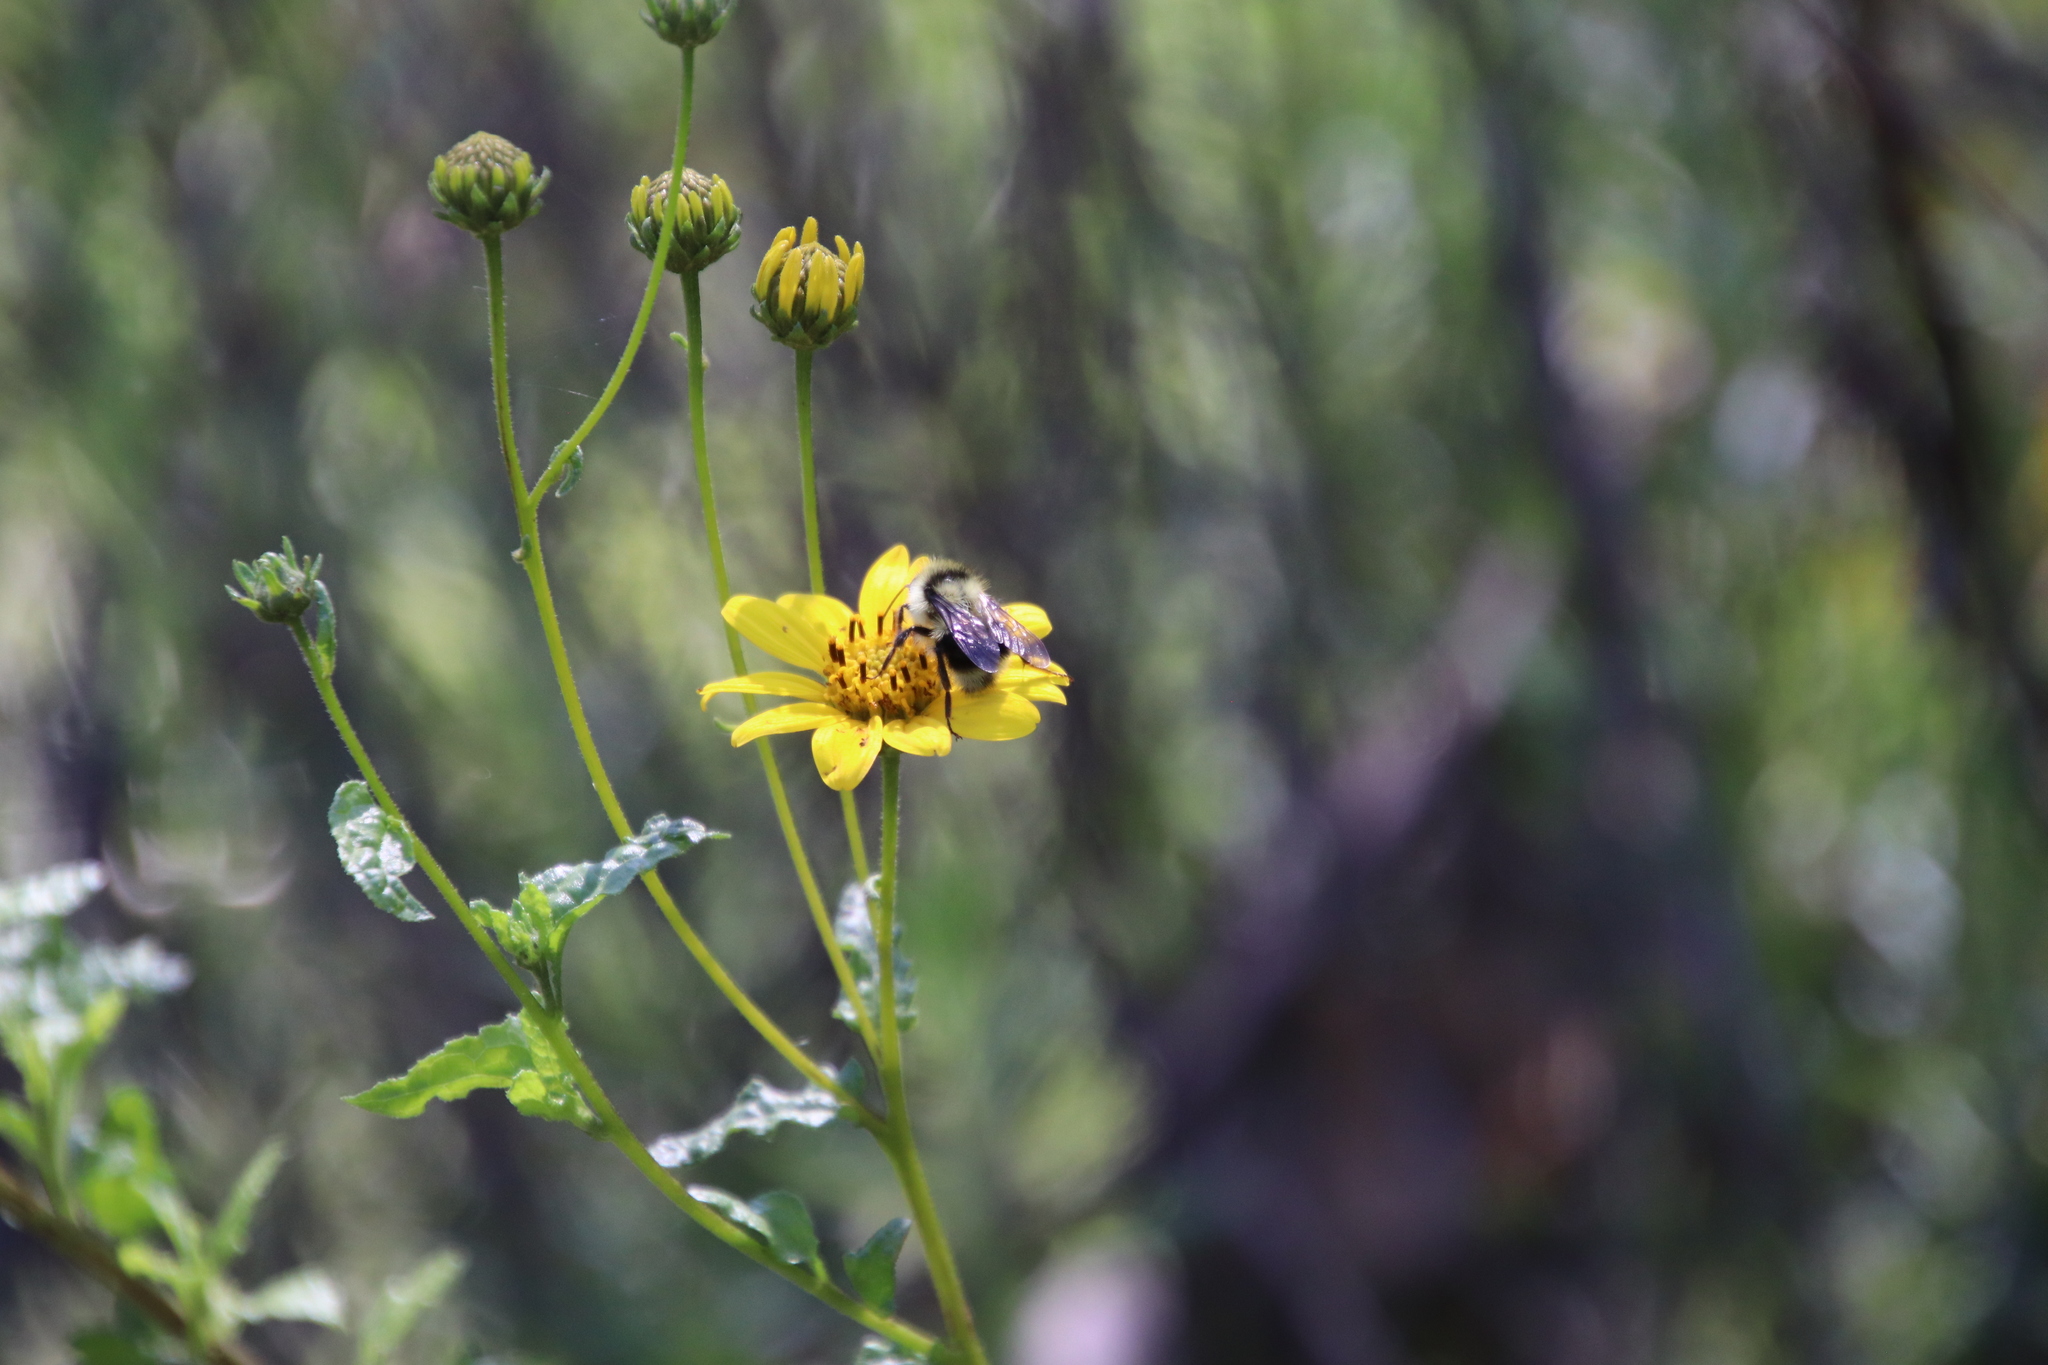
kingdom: Plantae
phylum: Tracheophyta
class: Magnoliopsida
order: Asterales
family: Asteraceae
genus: Bahiopsis
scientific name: Bahiopsis laciniata
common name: San diego county viguiera
